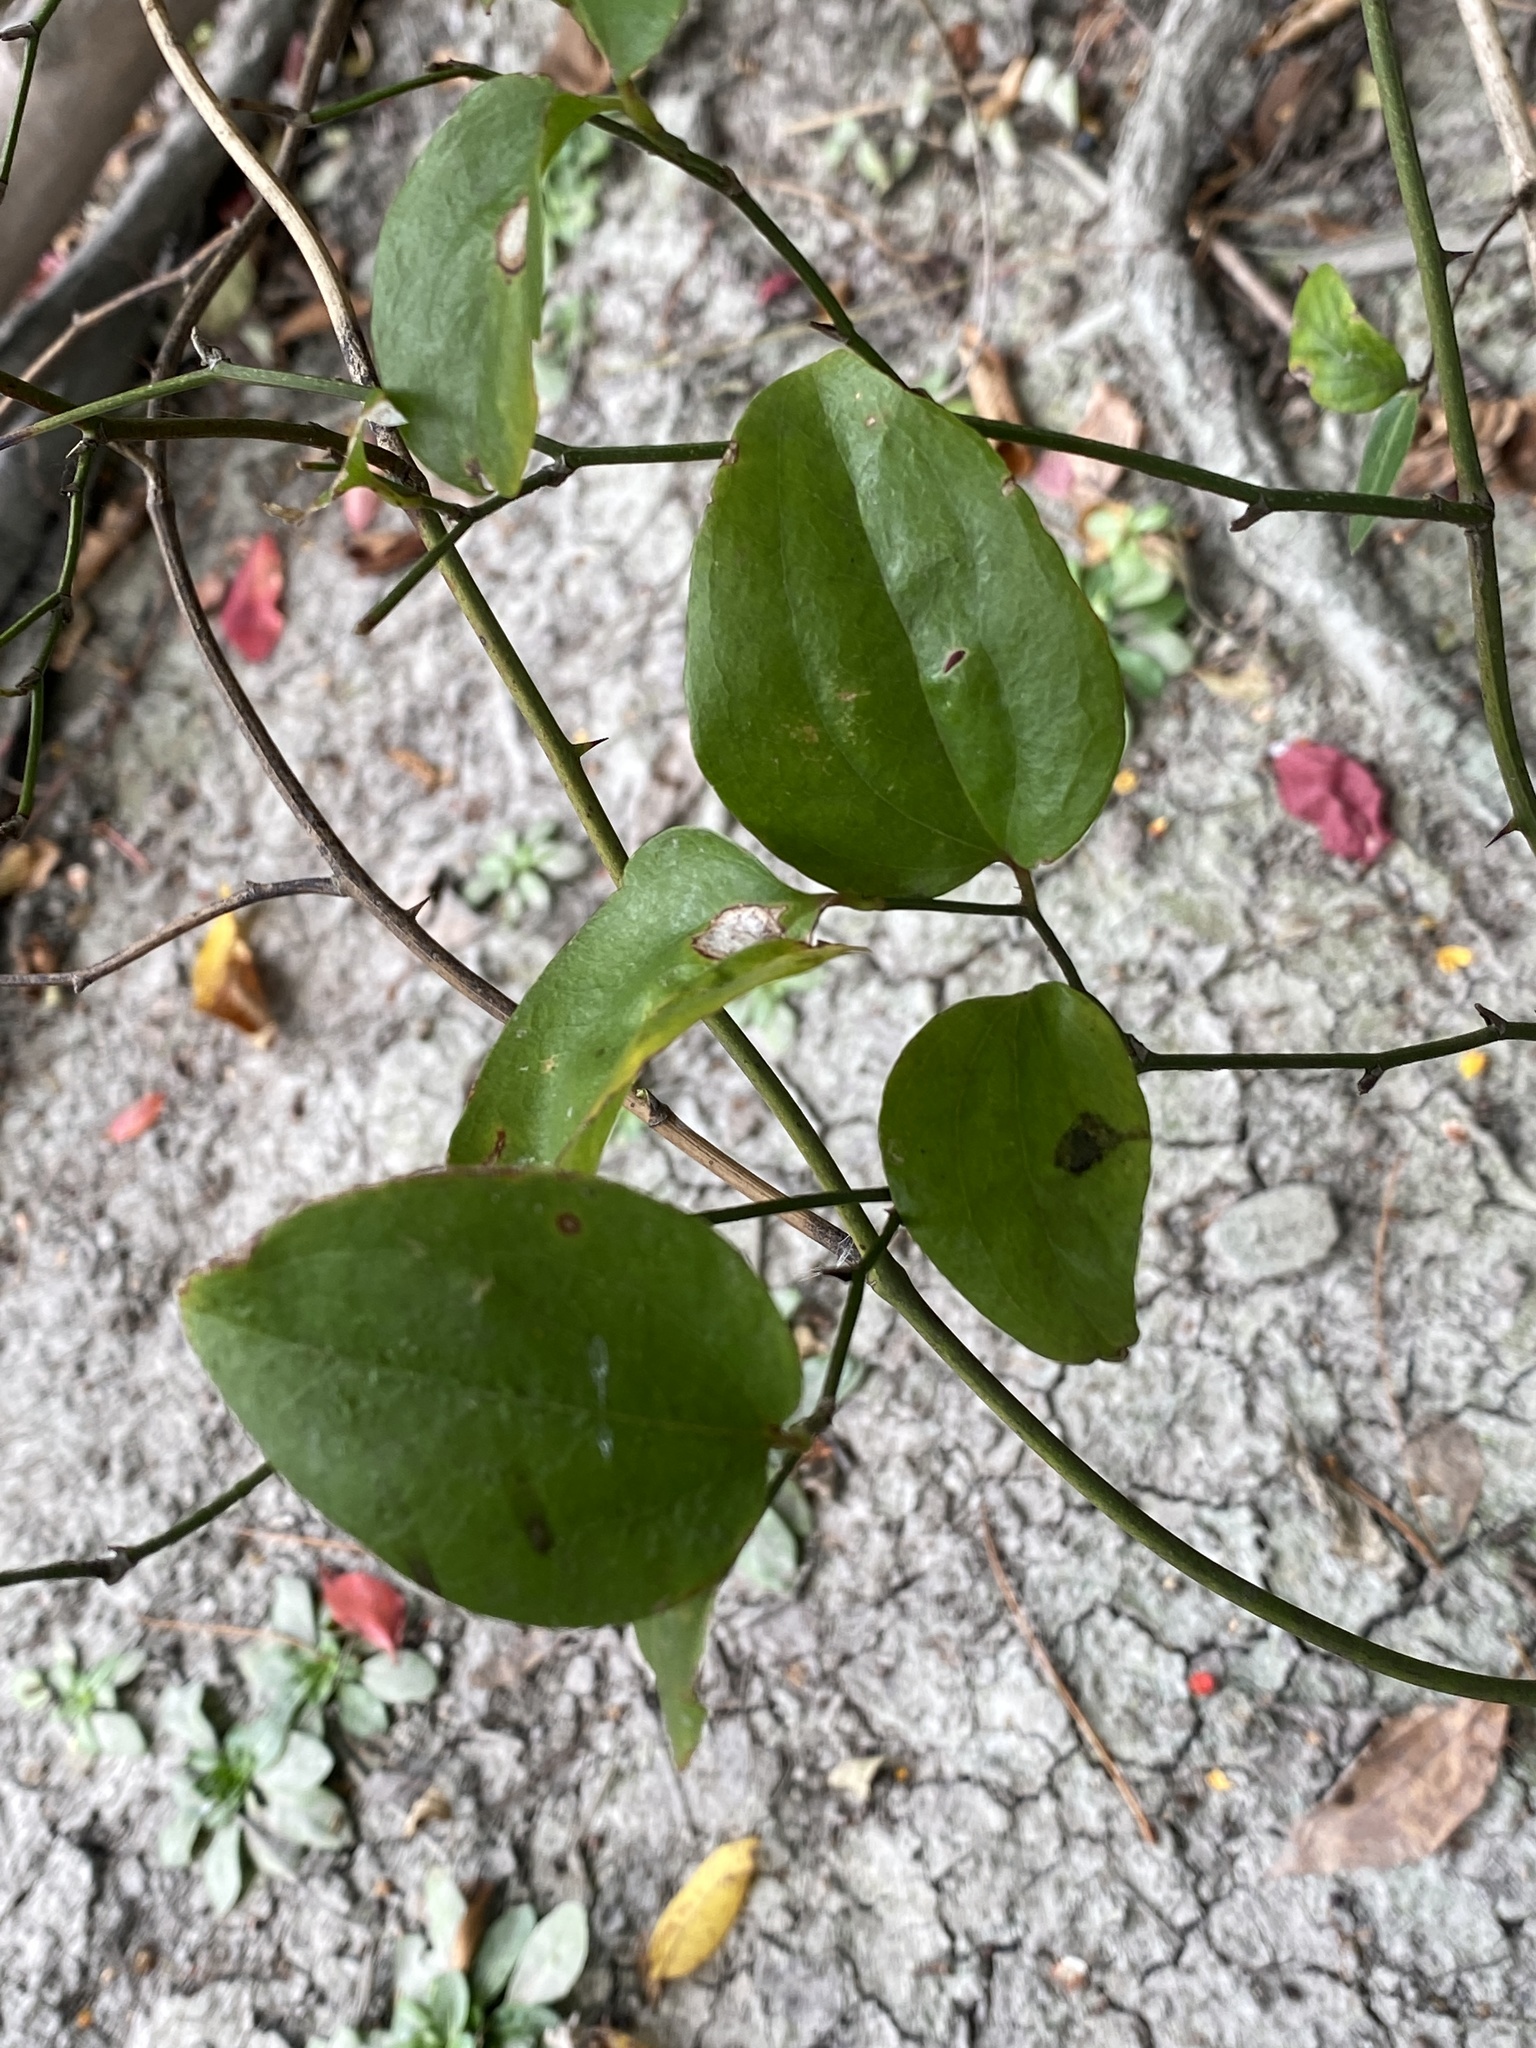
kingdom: Plantae
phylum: Tracheophyta
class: Liliopsida
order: Liliales
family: Smilacaceae
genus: Smilax
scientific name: Smilax rotundifolia
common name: Bullbriar
